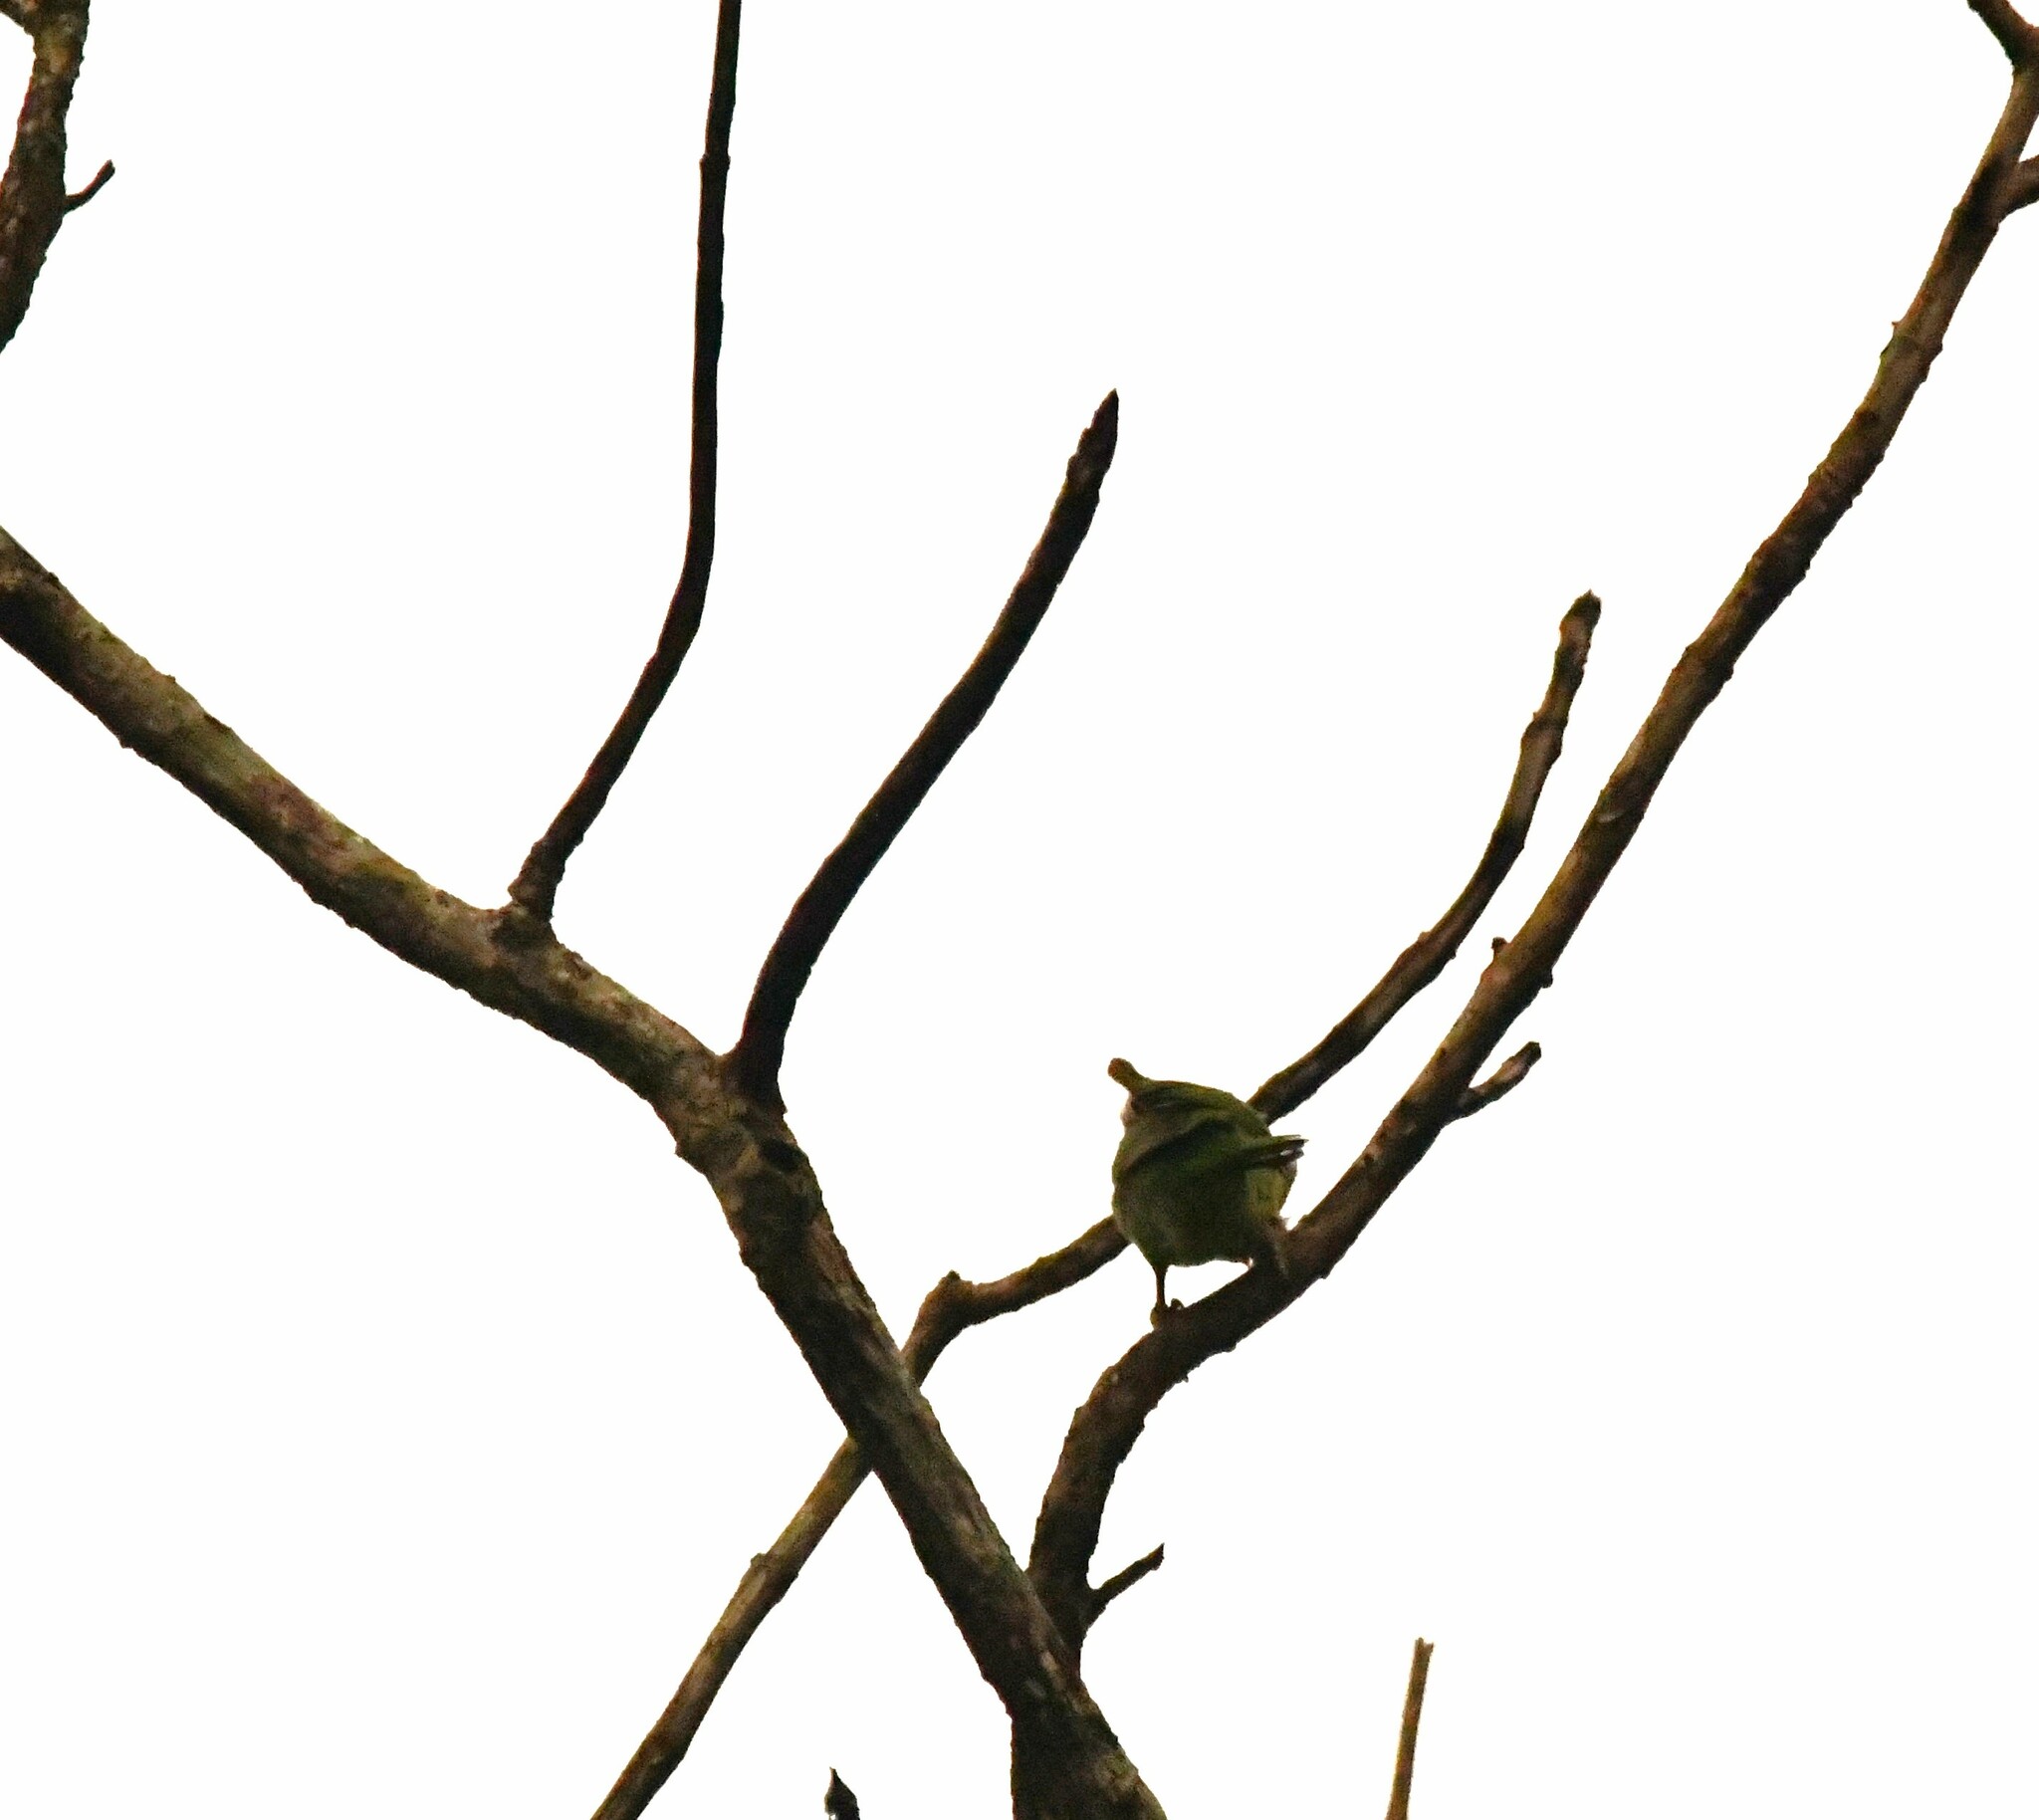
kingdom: Animalia
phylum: Chordata
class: Aves
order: Piciformes
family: Megalaimidae
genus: Psilopogon
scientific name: Psilopogon viridis
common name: White-cheeked barbet
